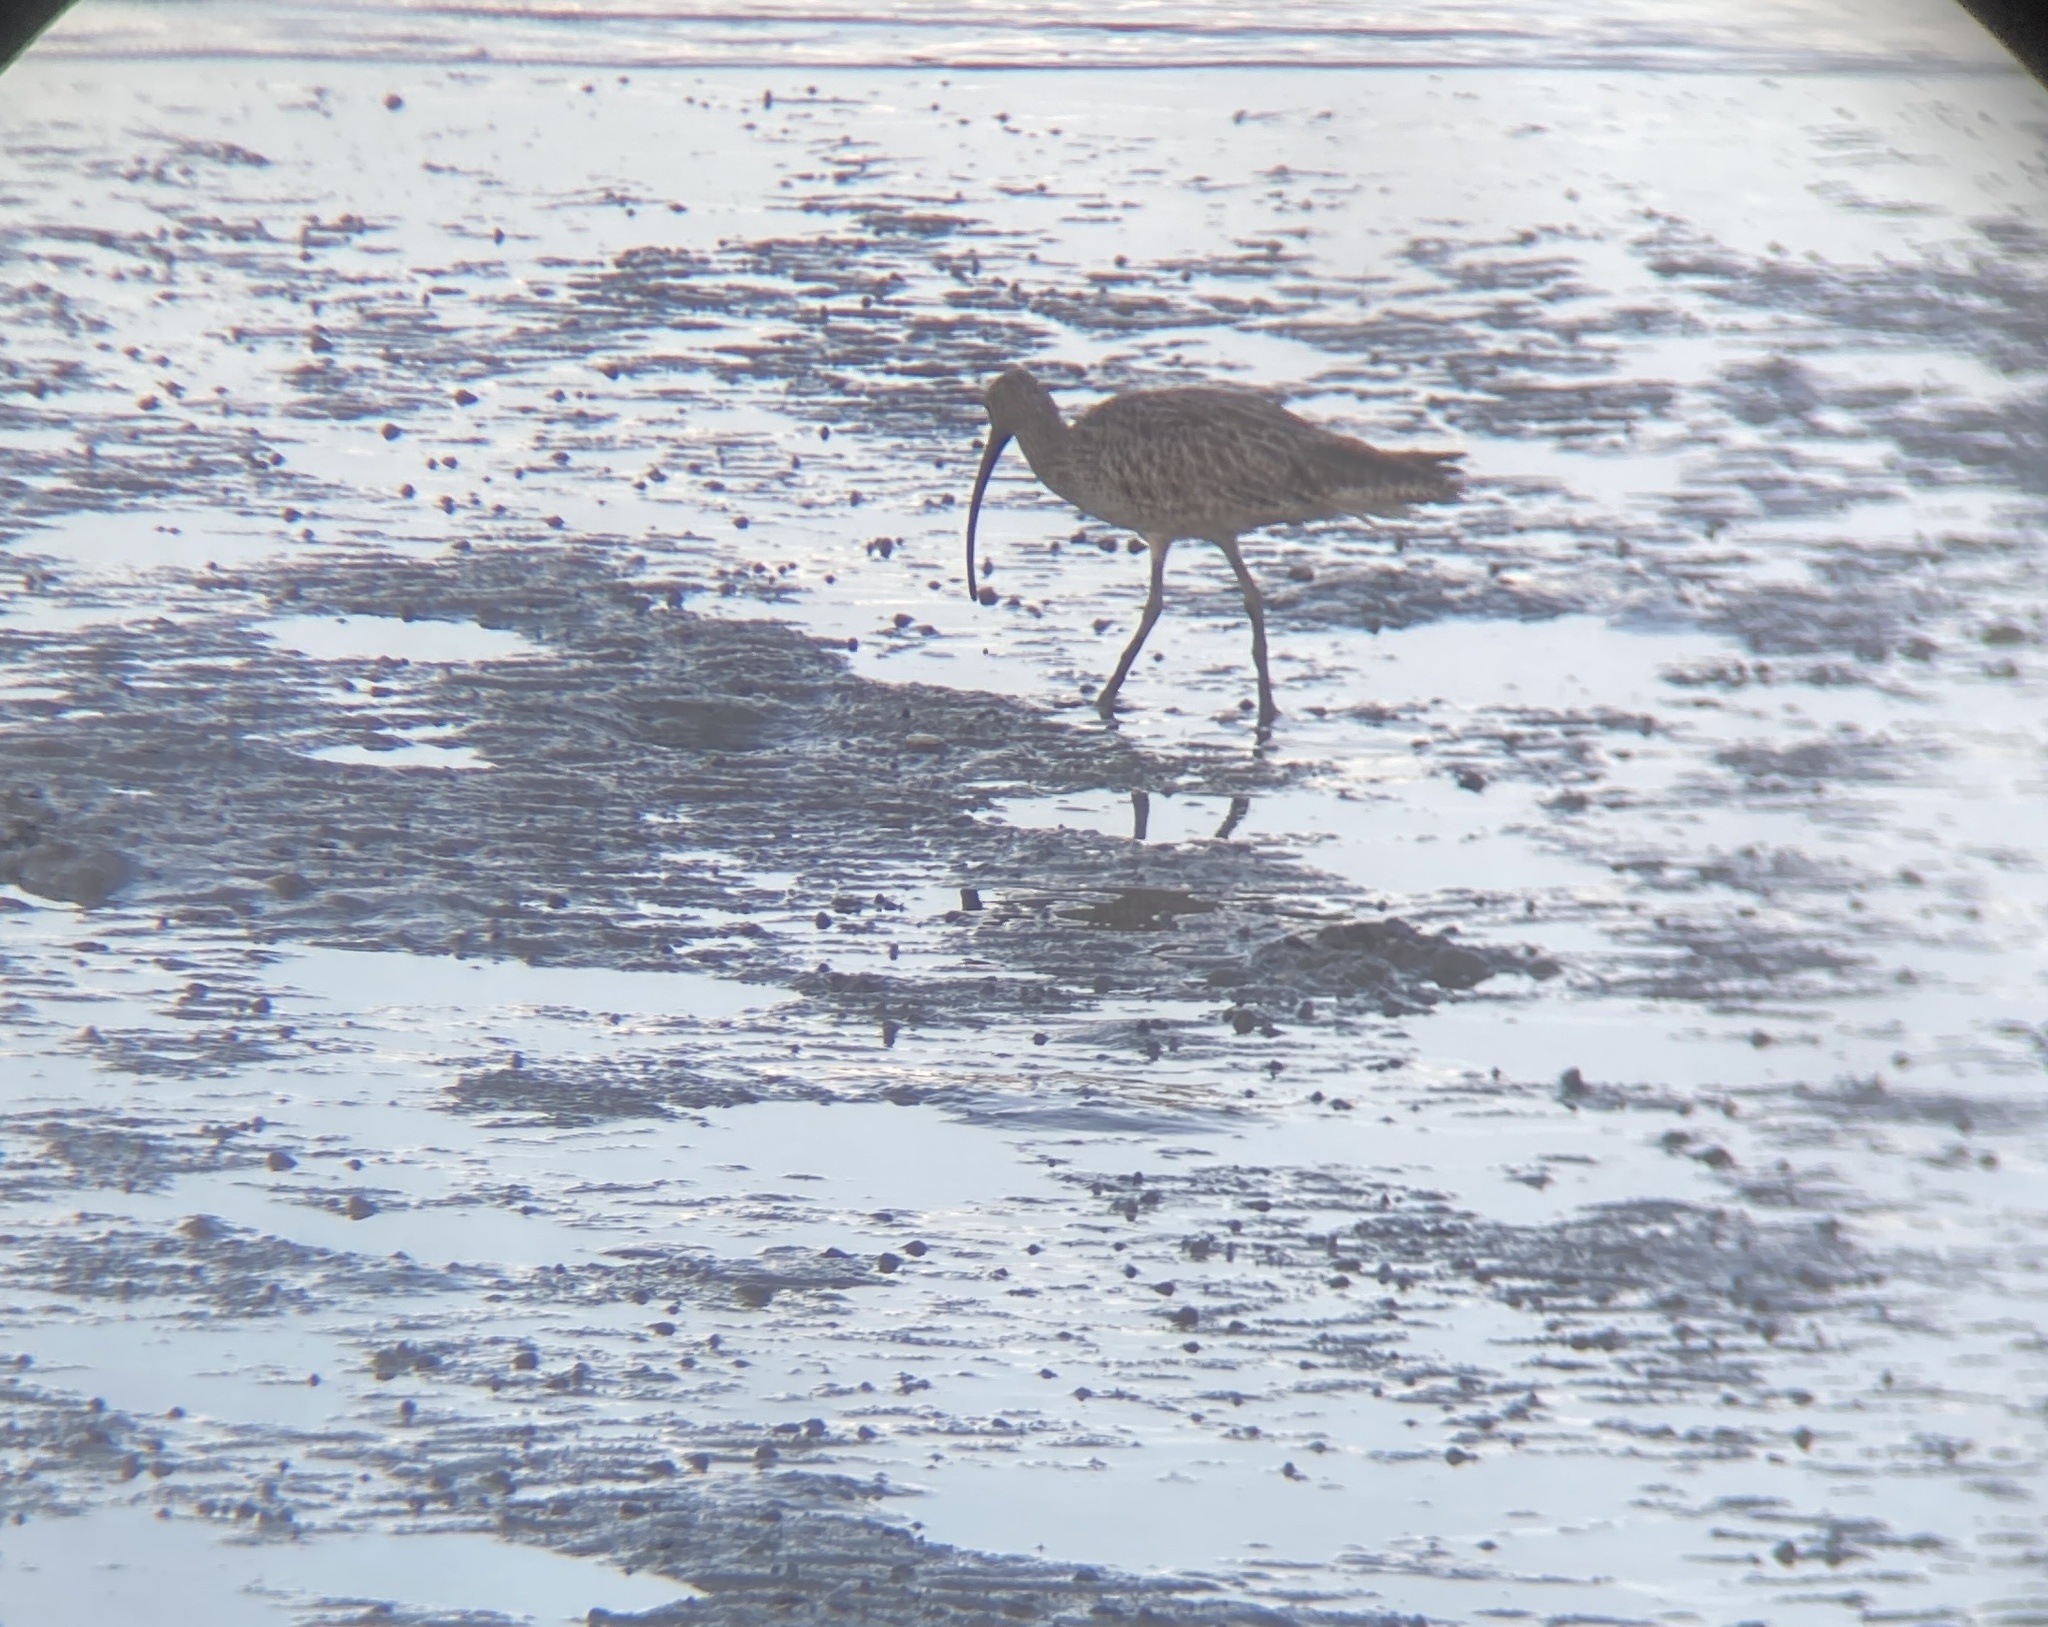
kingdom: Animalia
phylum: Chordata
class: Aves
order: Charadriiformes
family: Scolopacidae
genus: Numenius
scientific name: Numenius madagascariensis
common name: Far eastern curlew
